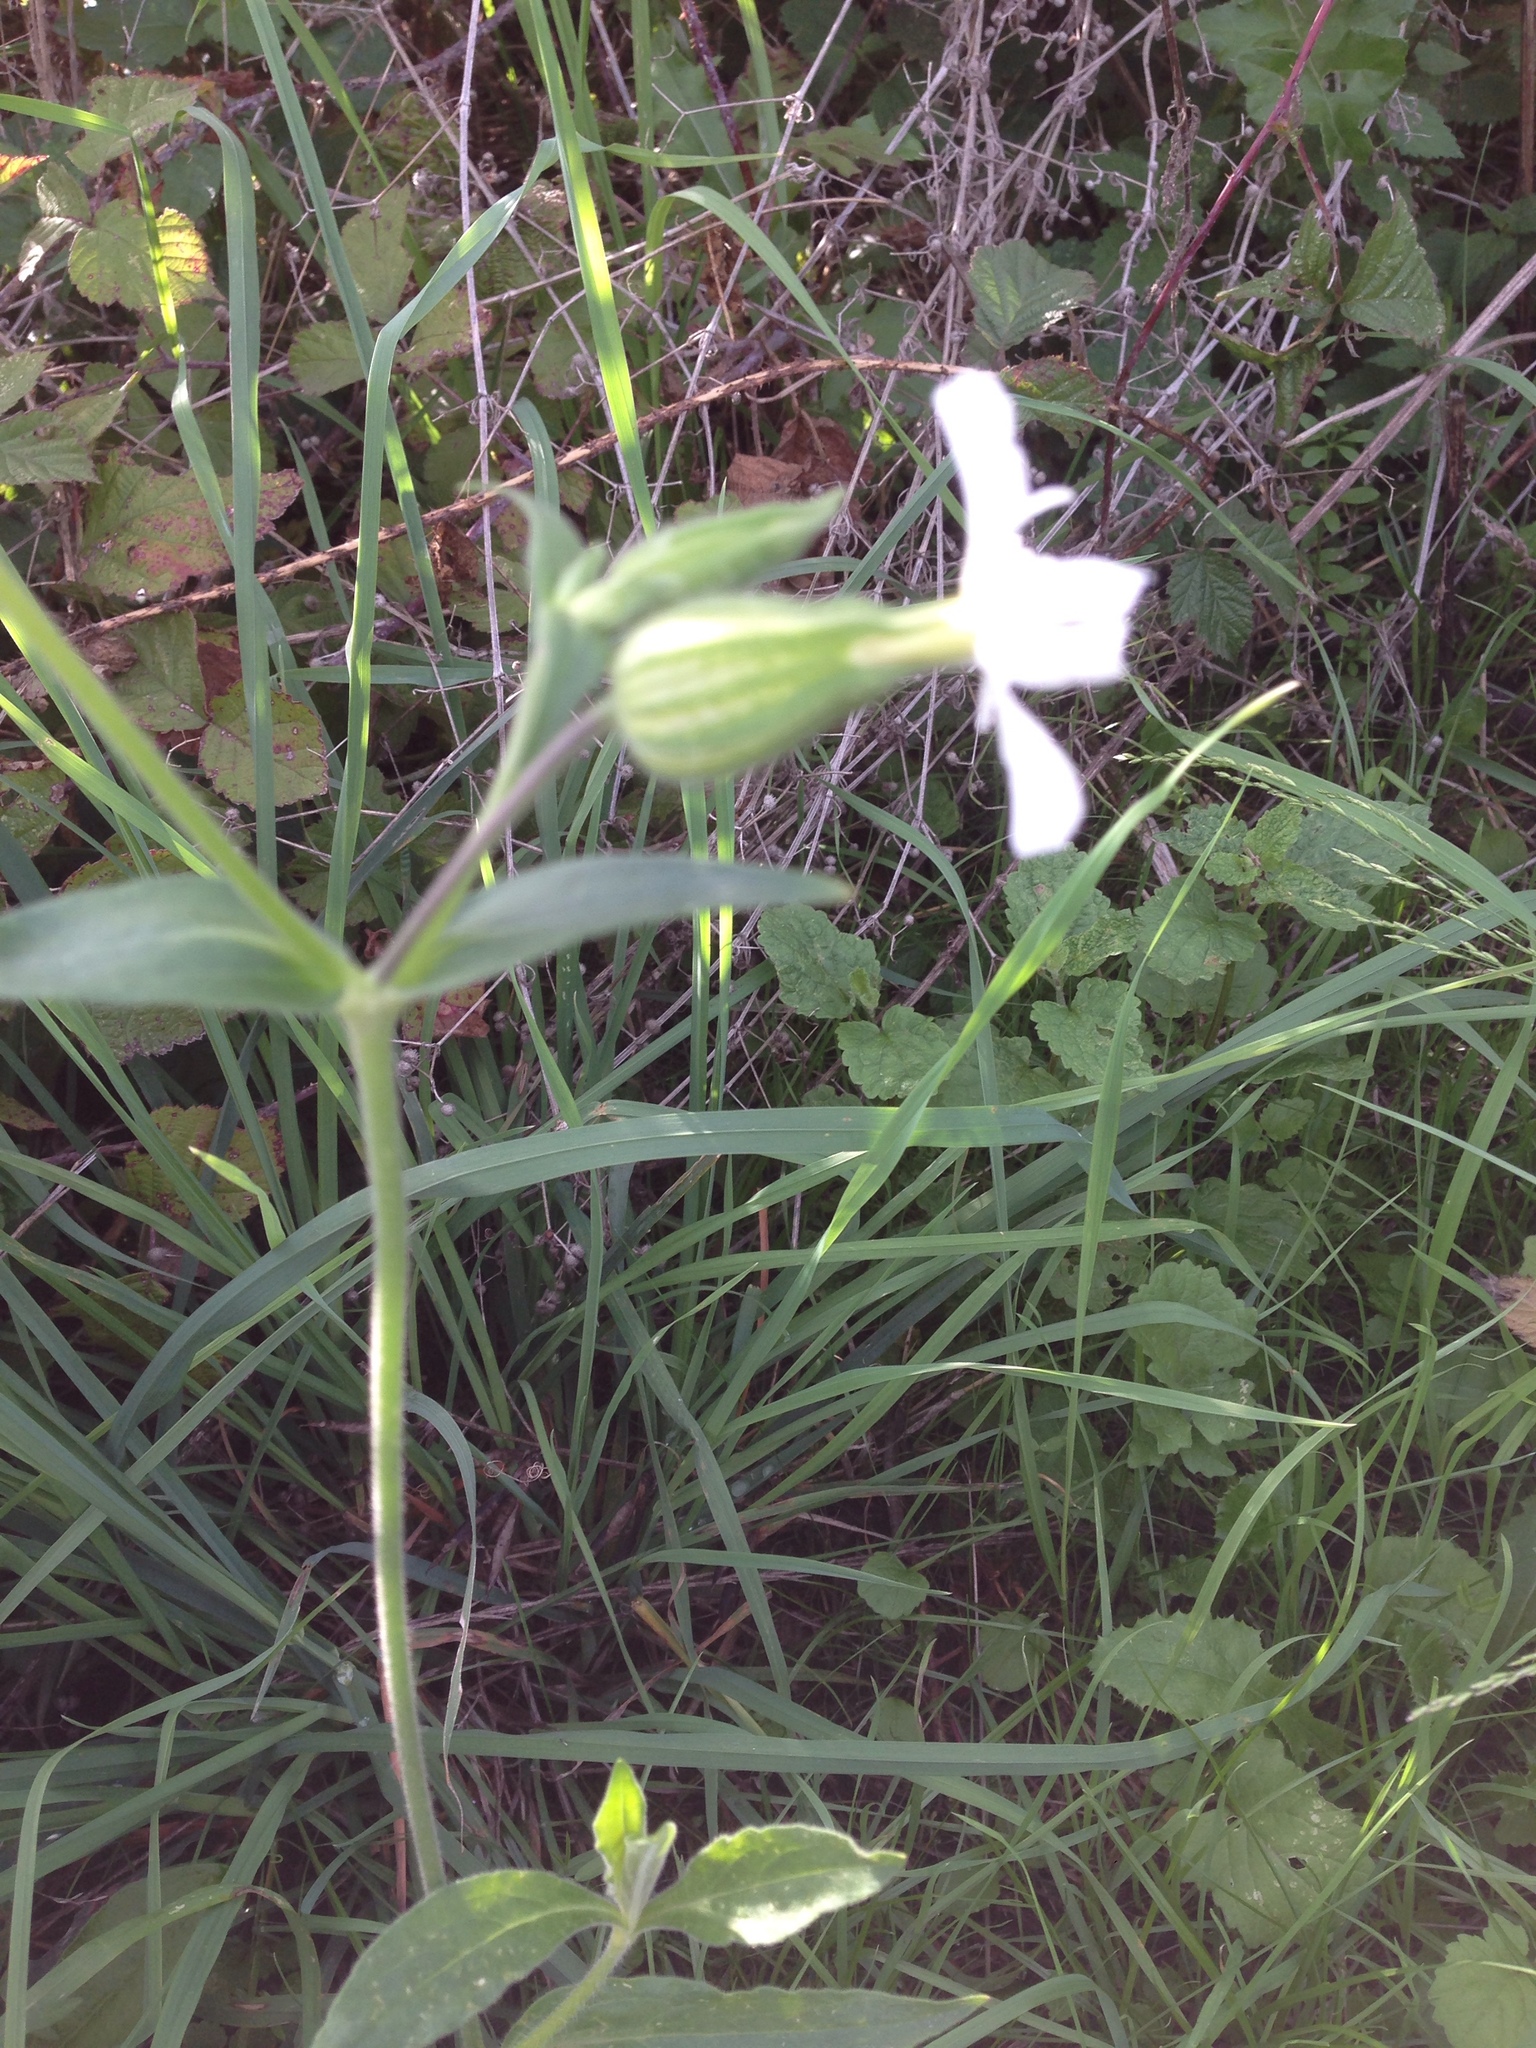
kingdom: Plantae
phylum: Tracheophyta
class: Magnoliopsida
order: Caryophyllales
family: Caryophyllaceae
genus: Silene
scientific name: Silene latifolia
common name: White campion
